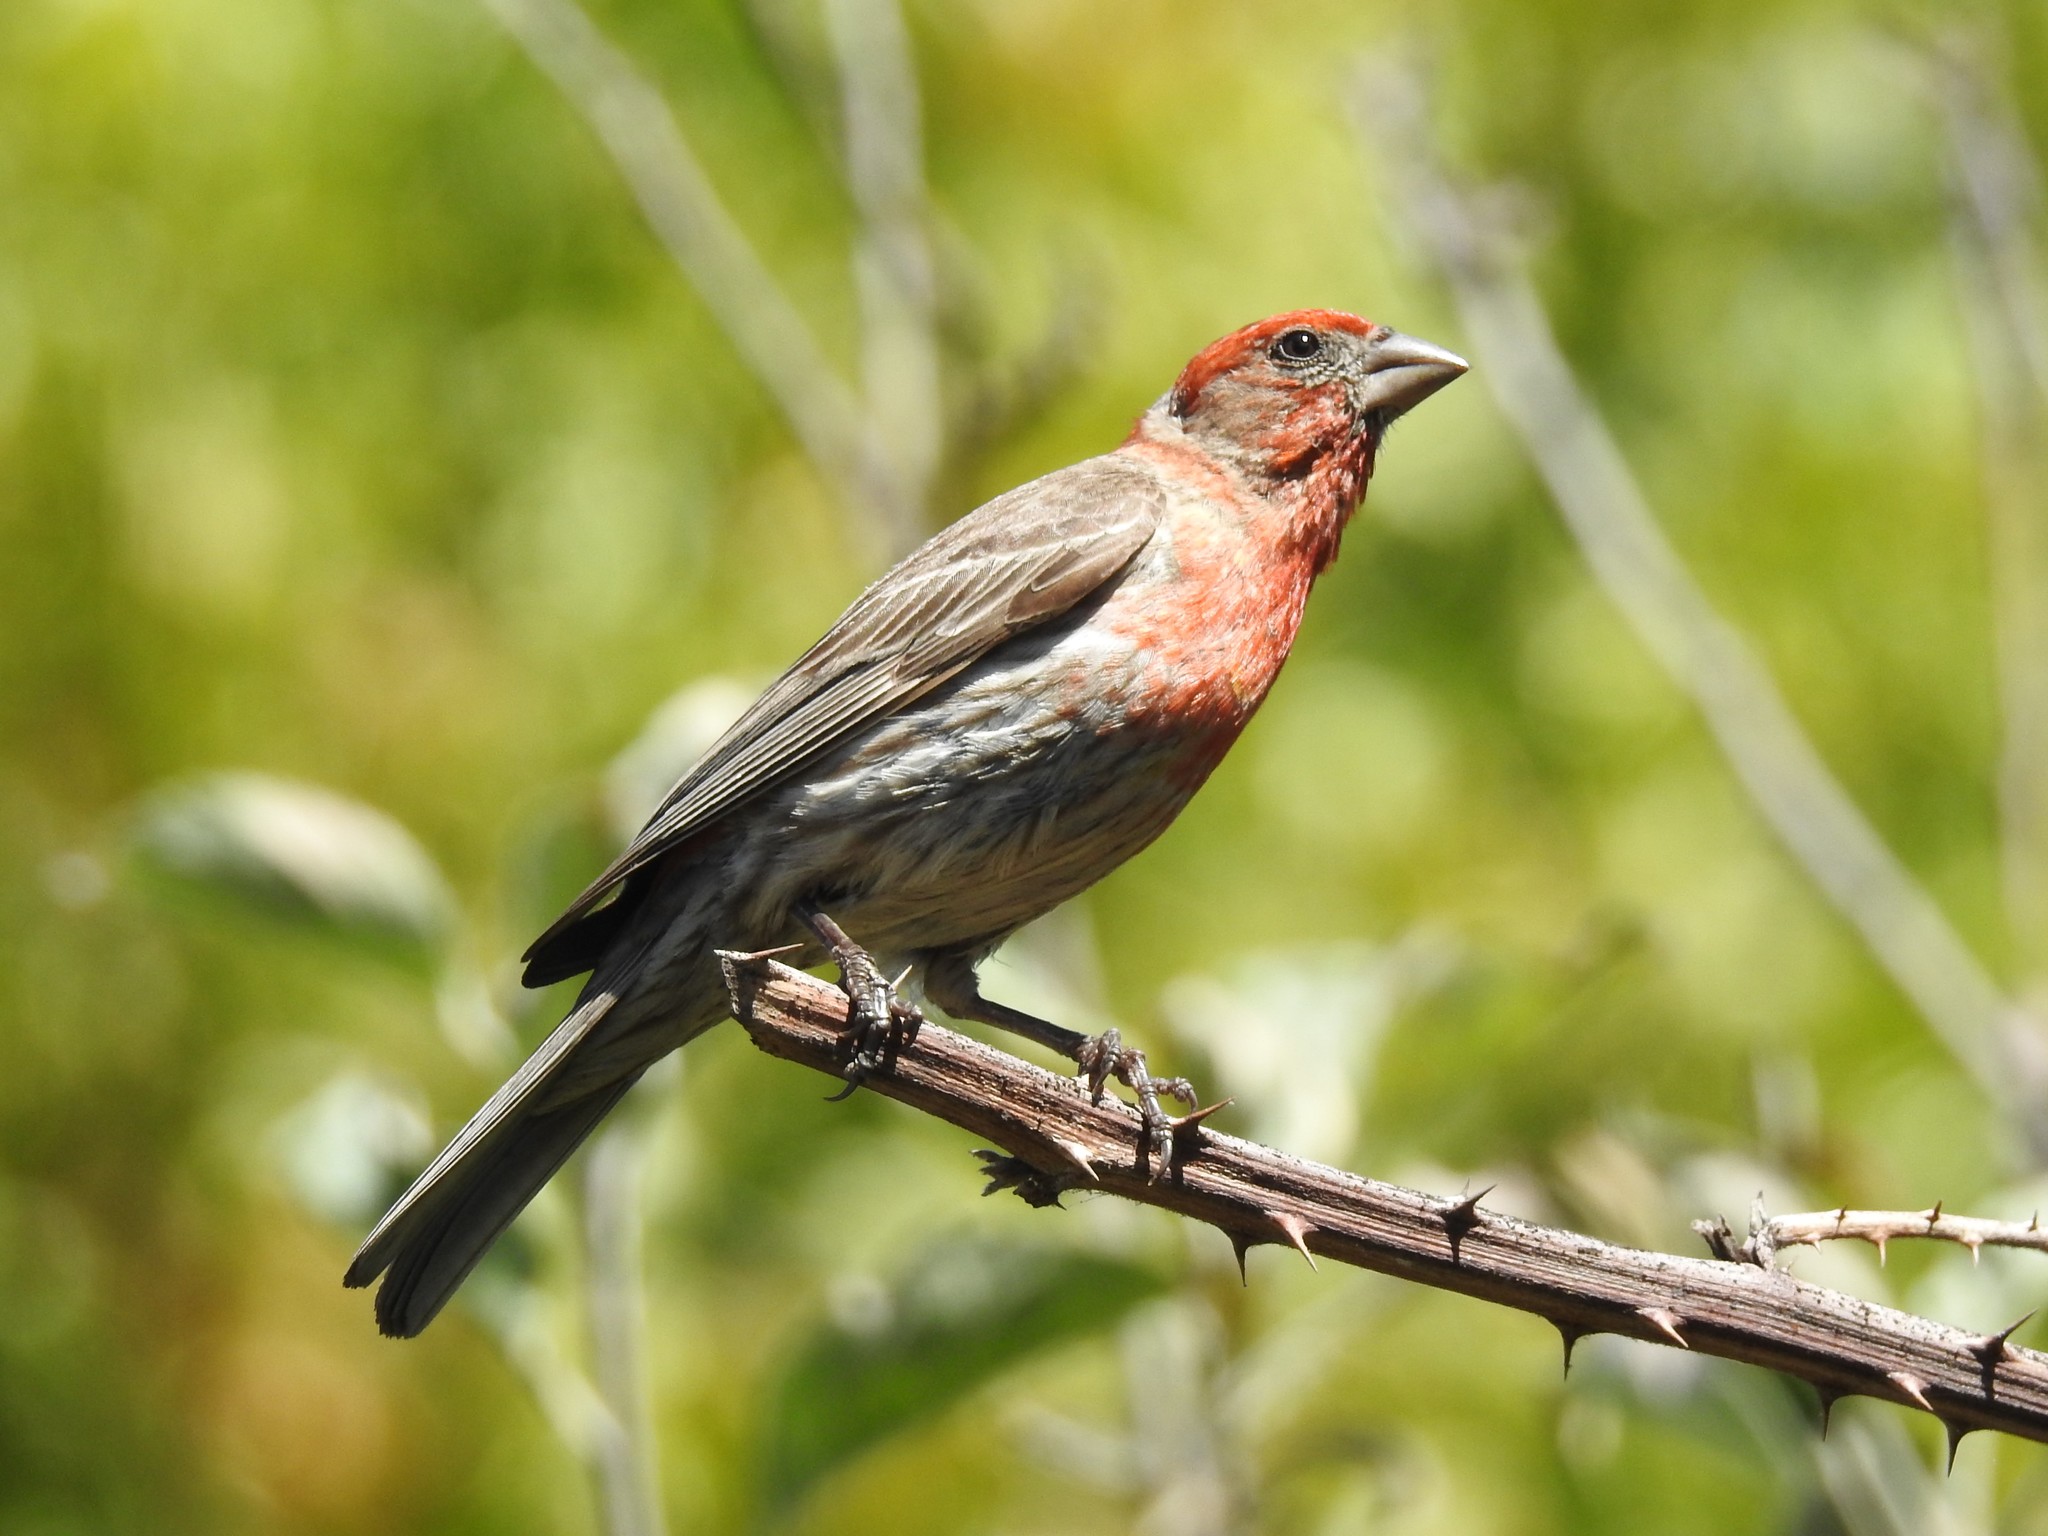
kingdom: Animalia
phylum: Chordata
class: Aves
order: Passeriformes
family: Fringillidae
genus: Haemorhous
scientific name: Haemorhous mexicanus
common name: House finch
